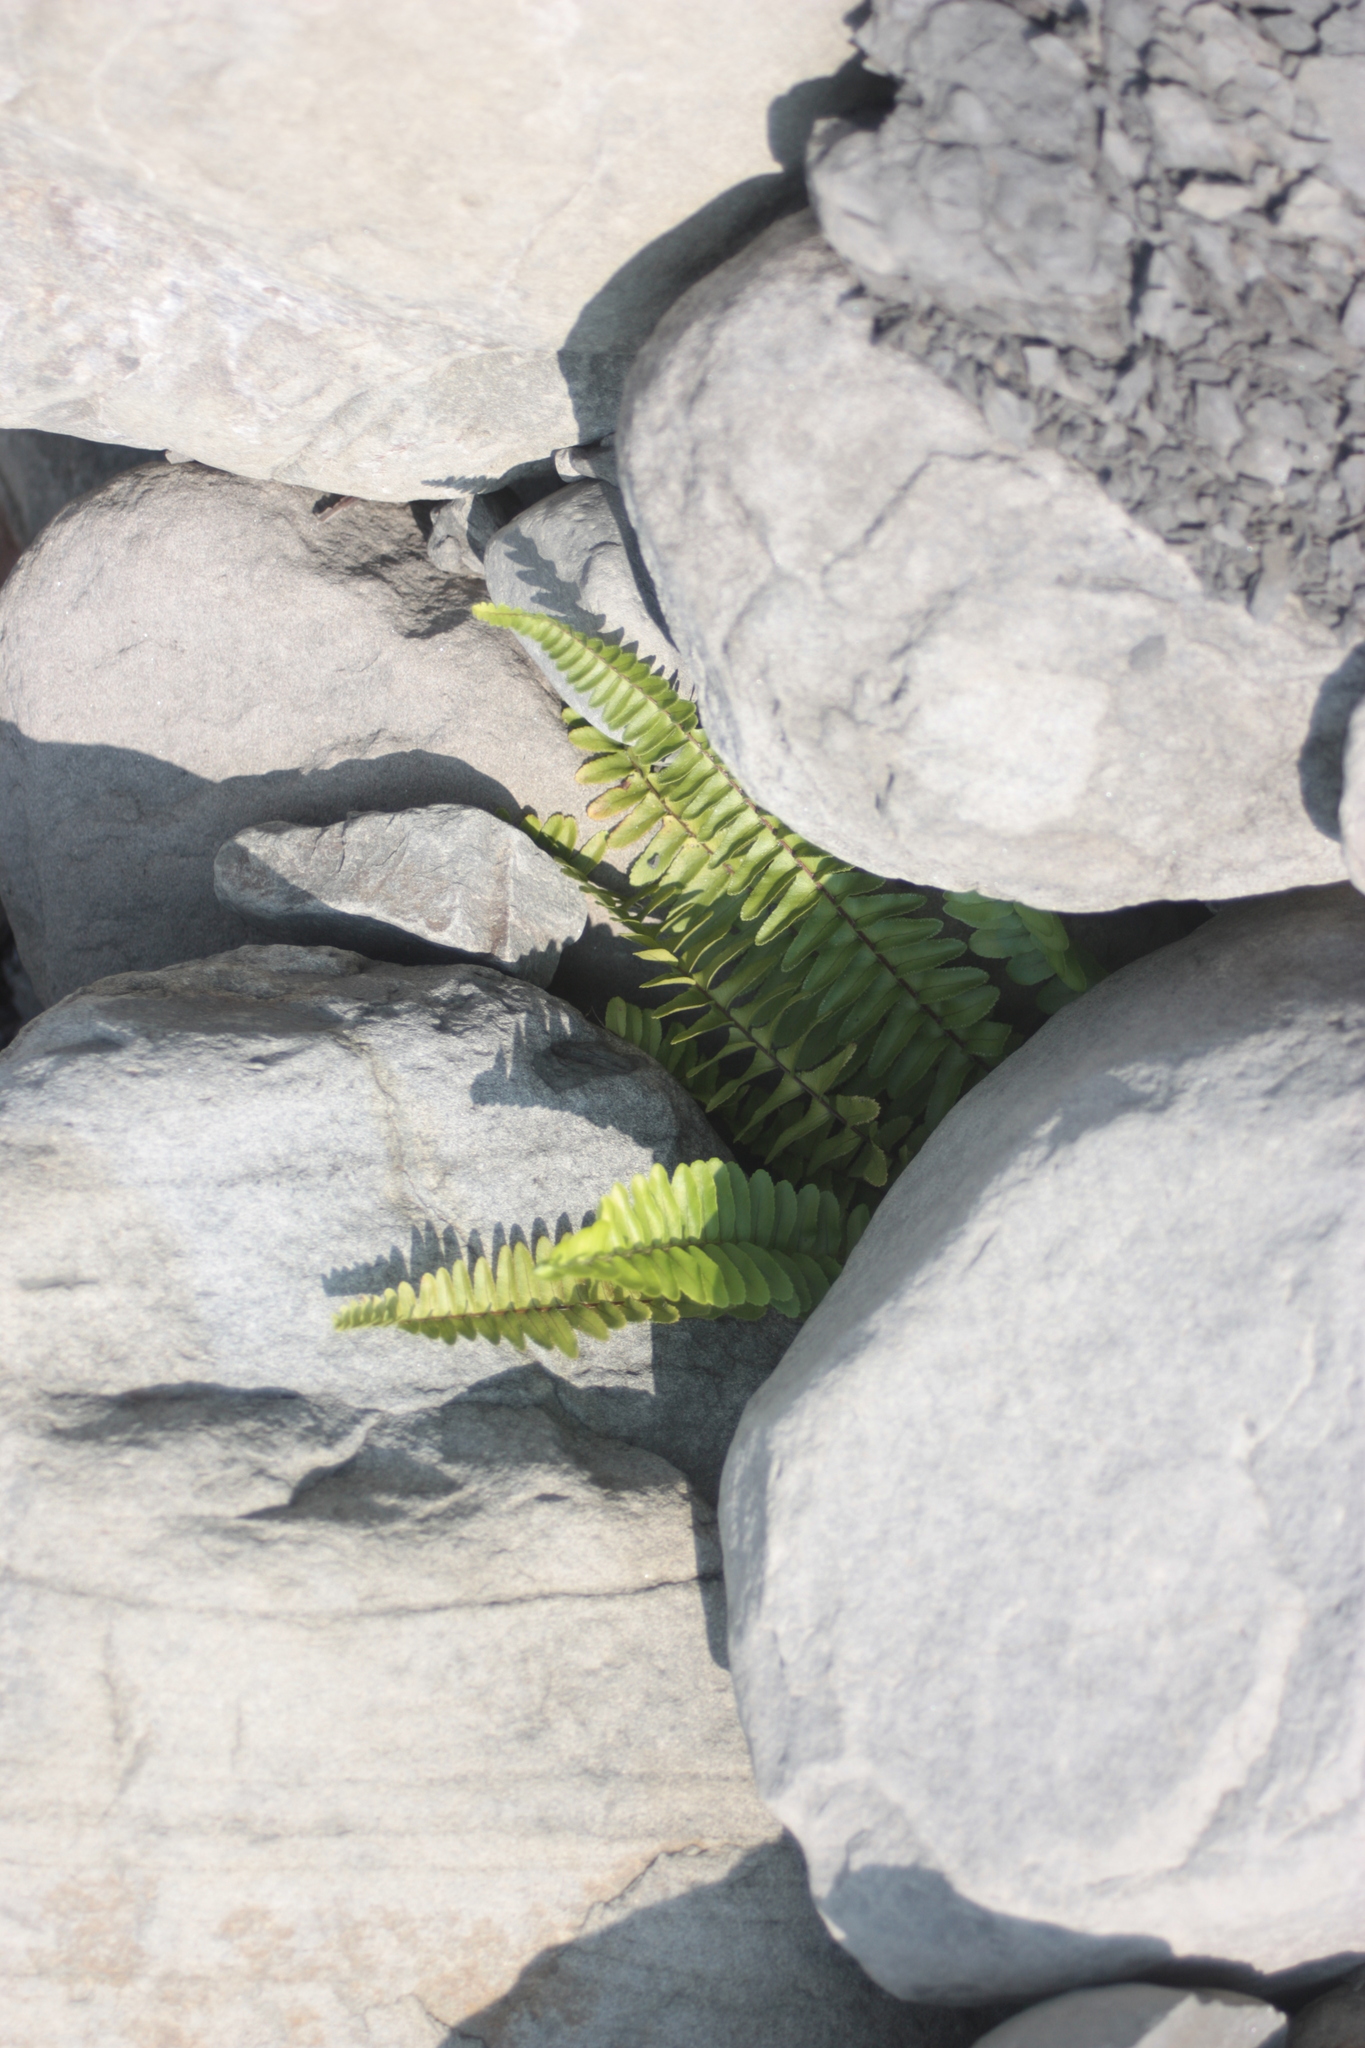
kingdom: Plantae
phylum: Tracheophyta
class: Polypodiopsida
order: Polypodiales
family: Nephrolepidaceae
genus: Nephrolepis
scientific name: Nephrolepis cordifolia
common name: Narrow swordfern
